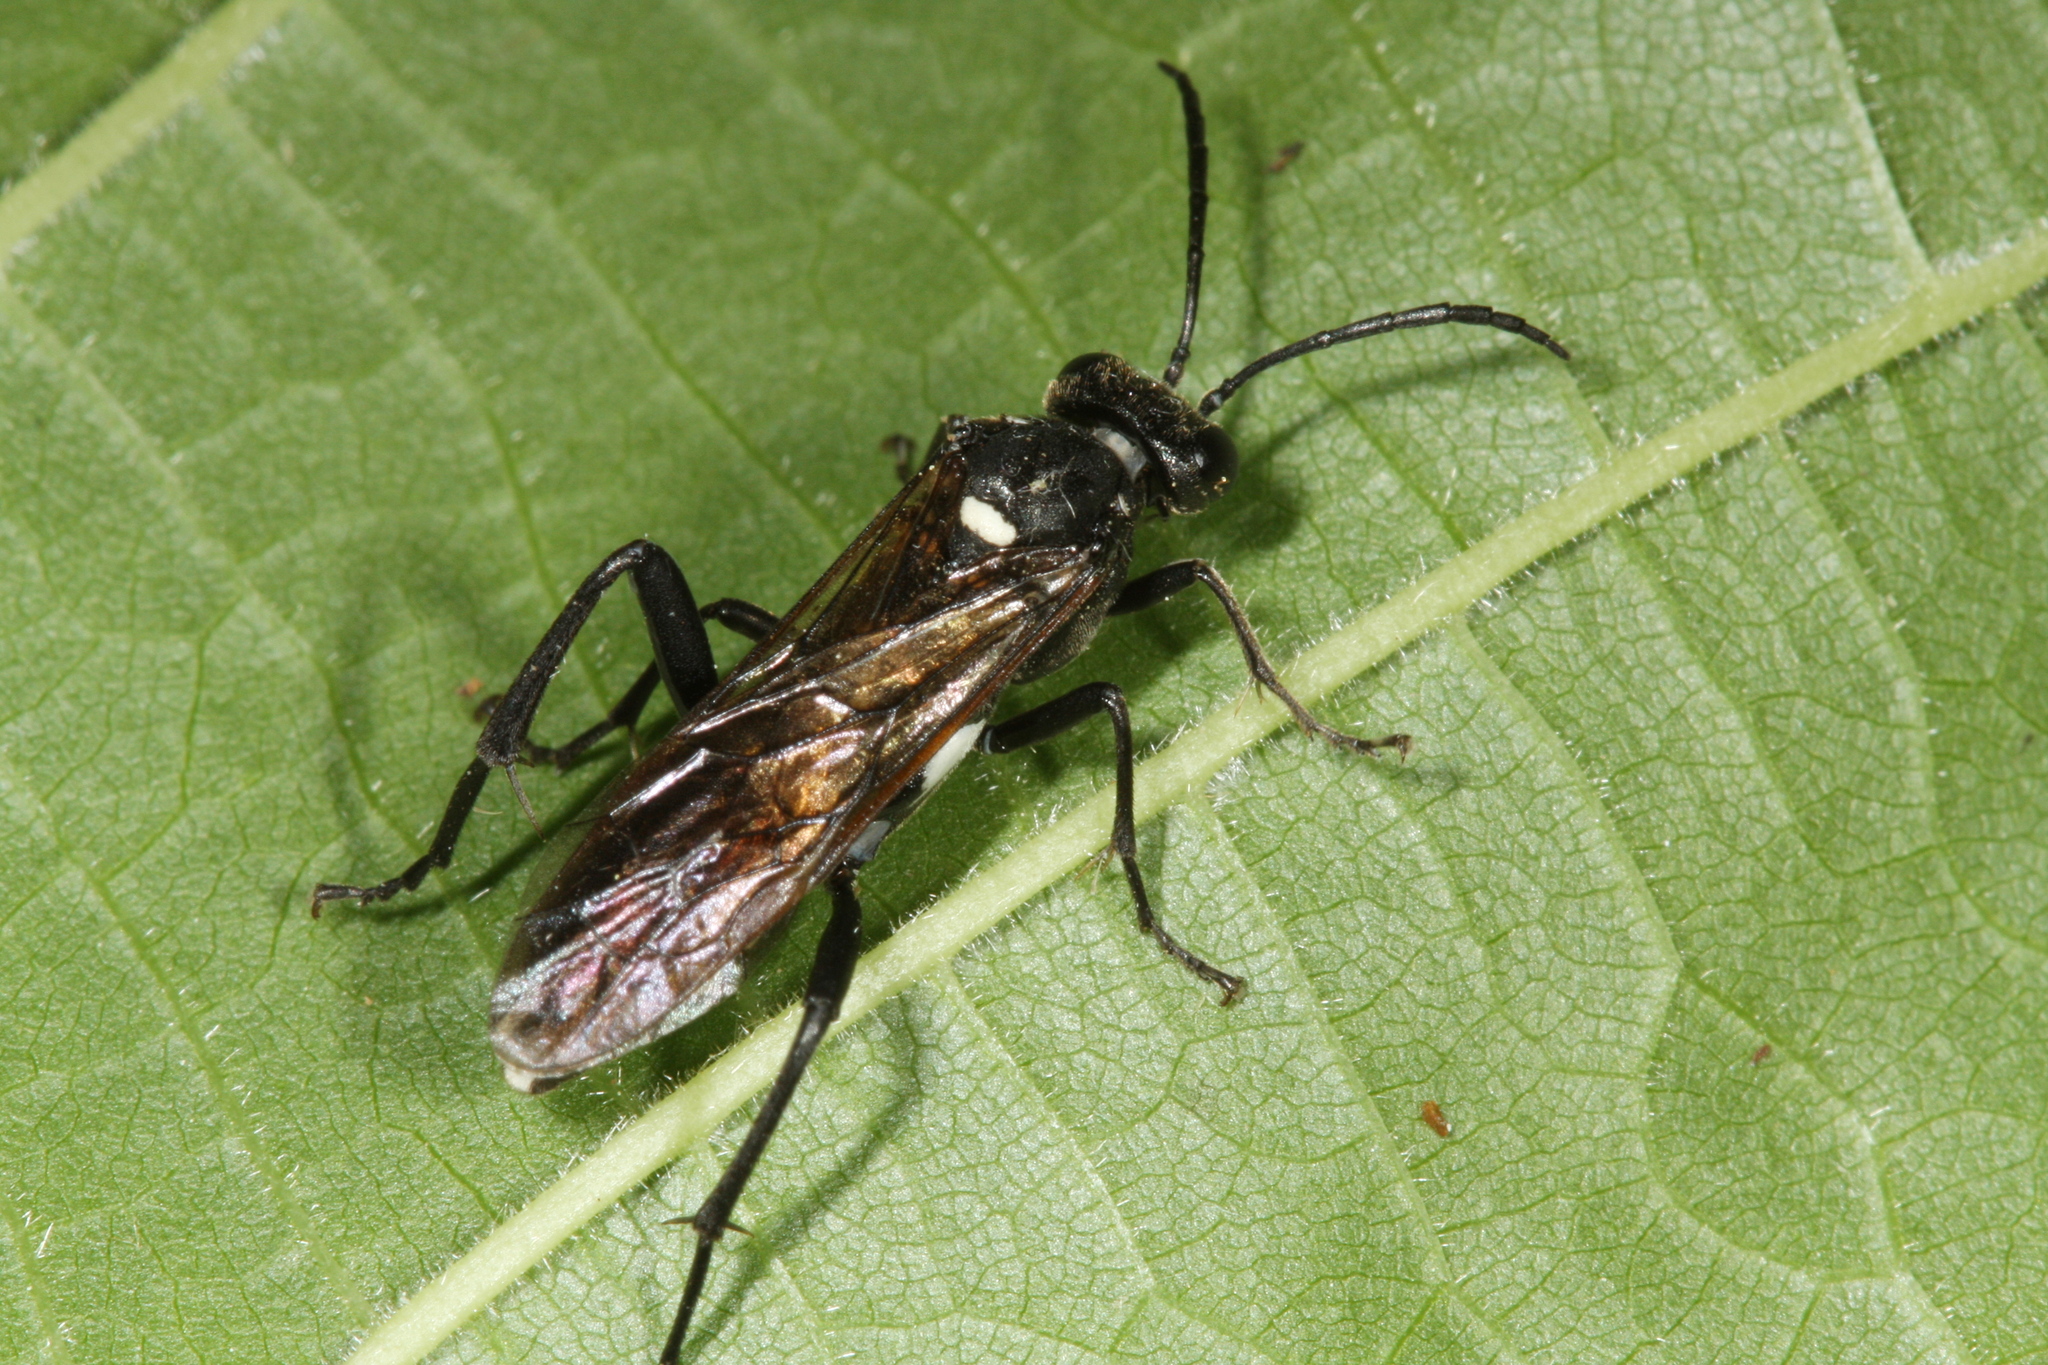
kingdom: Animalia
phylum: Arthropoda
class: Insecta
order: Hymenoptera
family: Tenthredinidae
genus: Macrophya
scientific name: Macrophya duodecimpunctata
